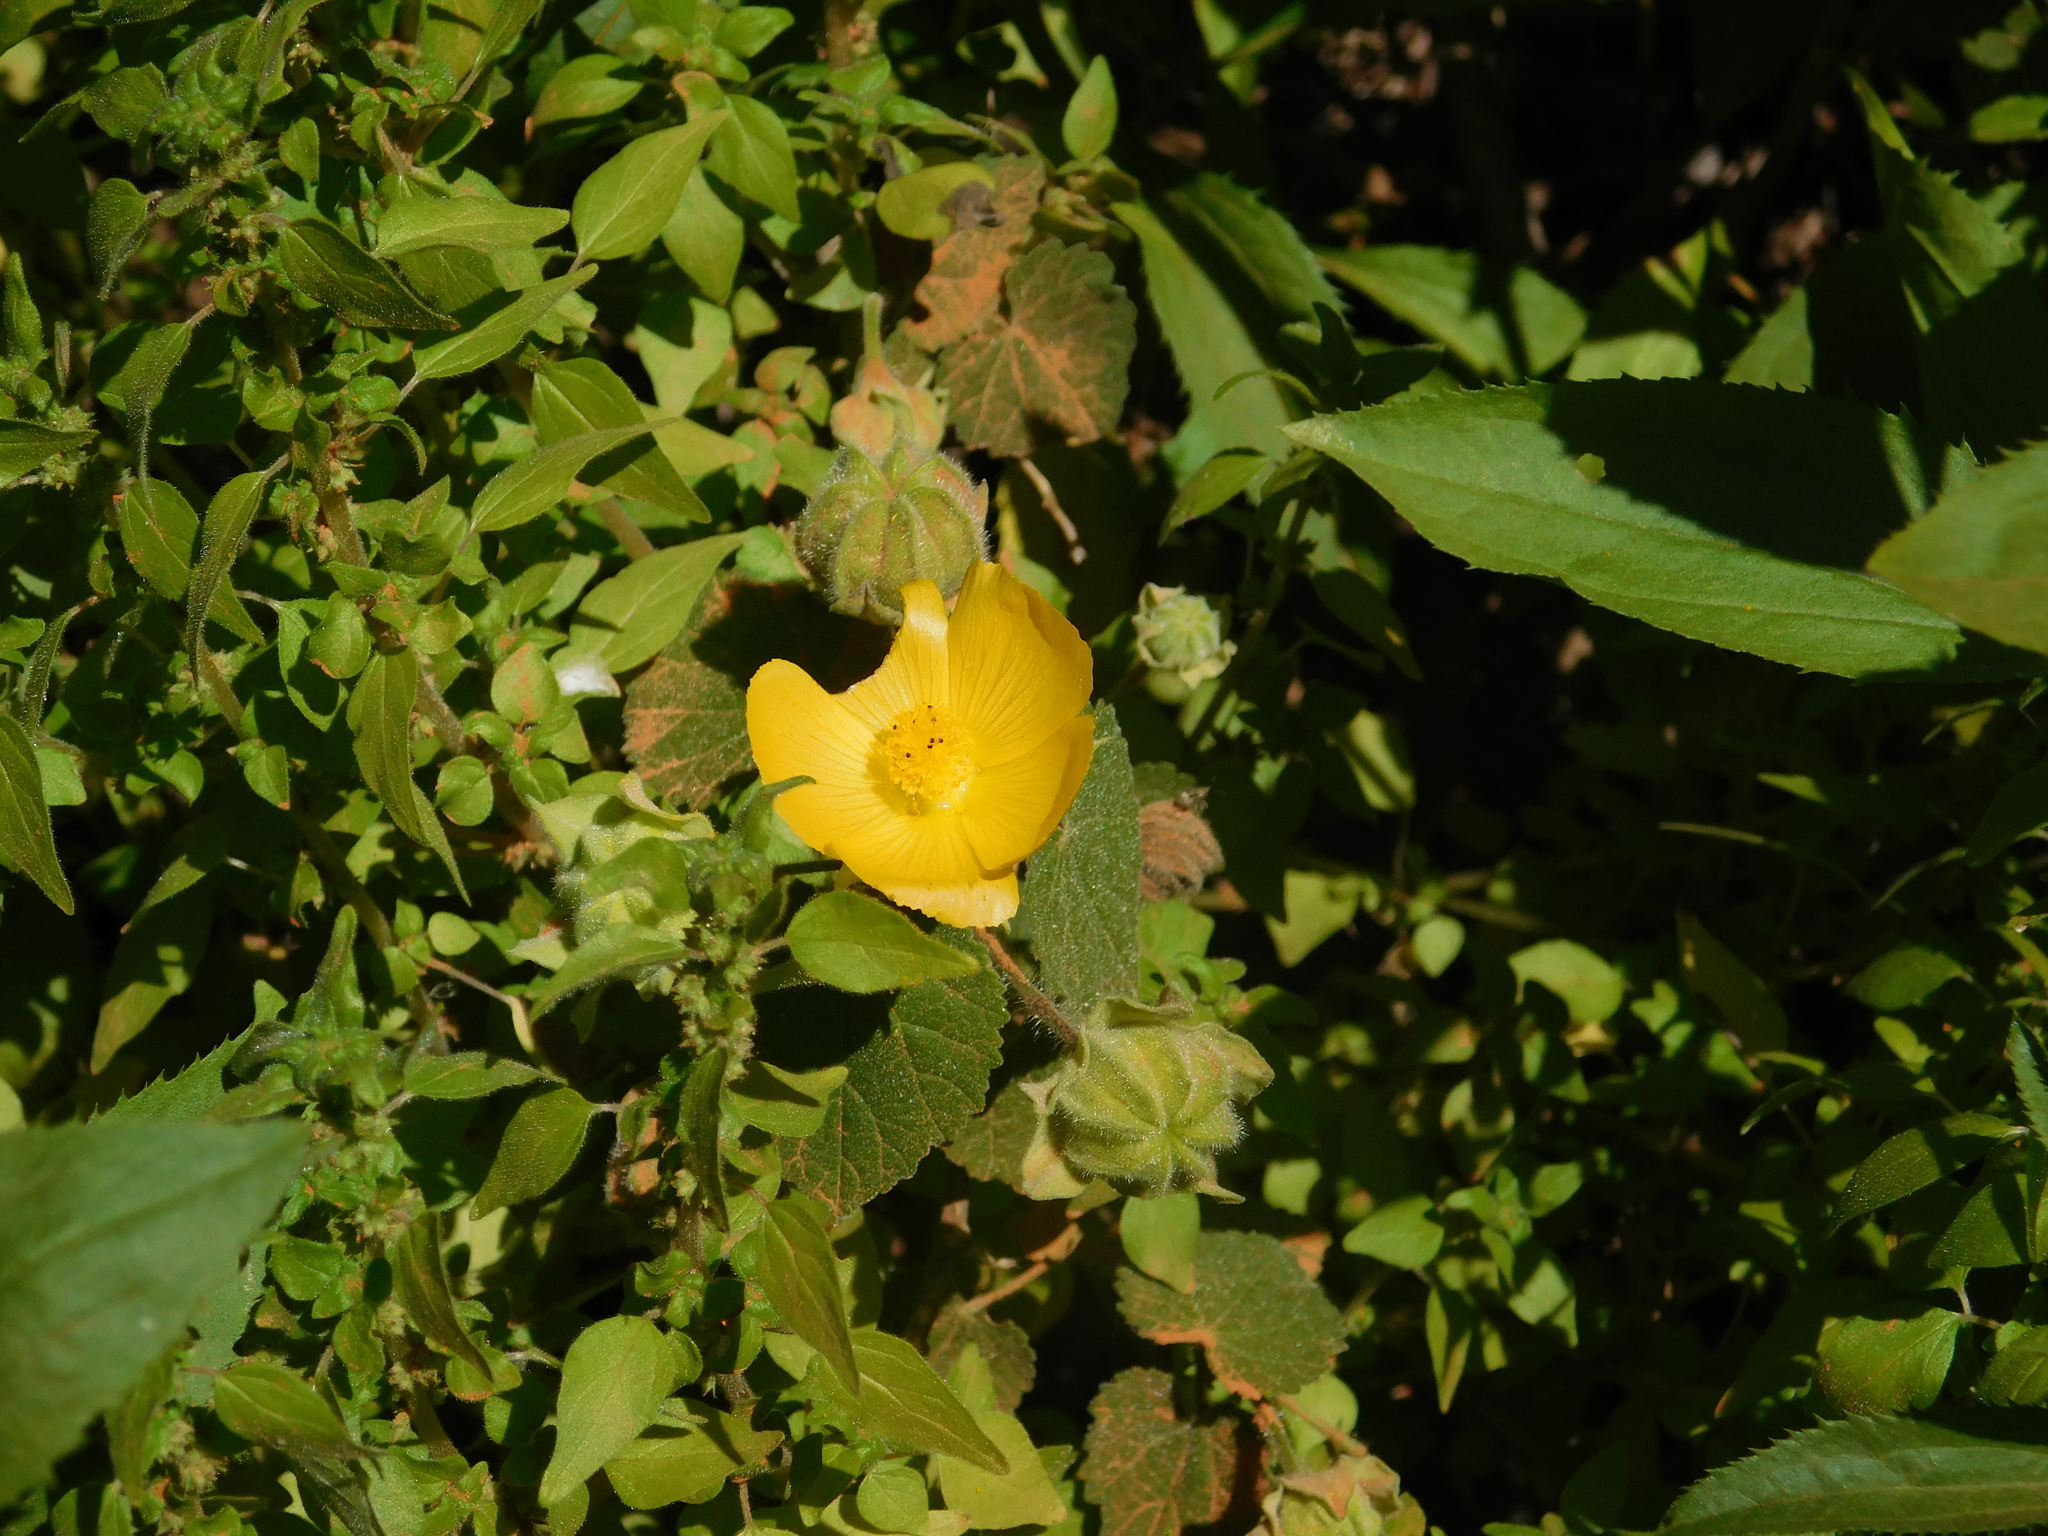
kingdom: Plantae
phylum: Tracheophyta
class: Magnoliopsida
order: Malvales
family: Malvaceae
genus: Abutilon
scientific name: Abutilon grandifolium
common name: Hairy abutilon
